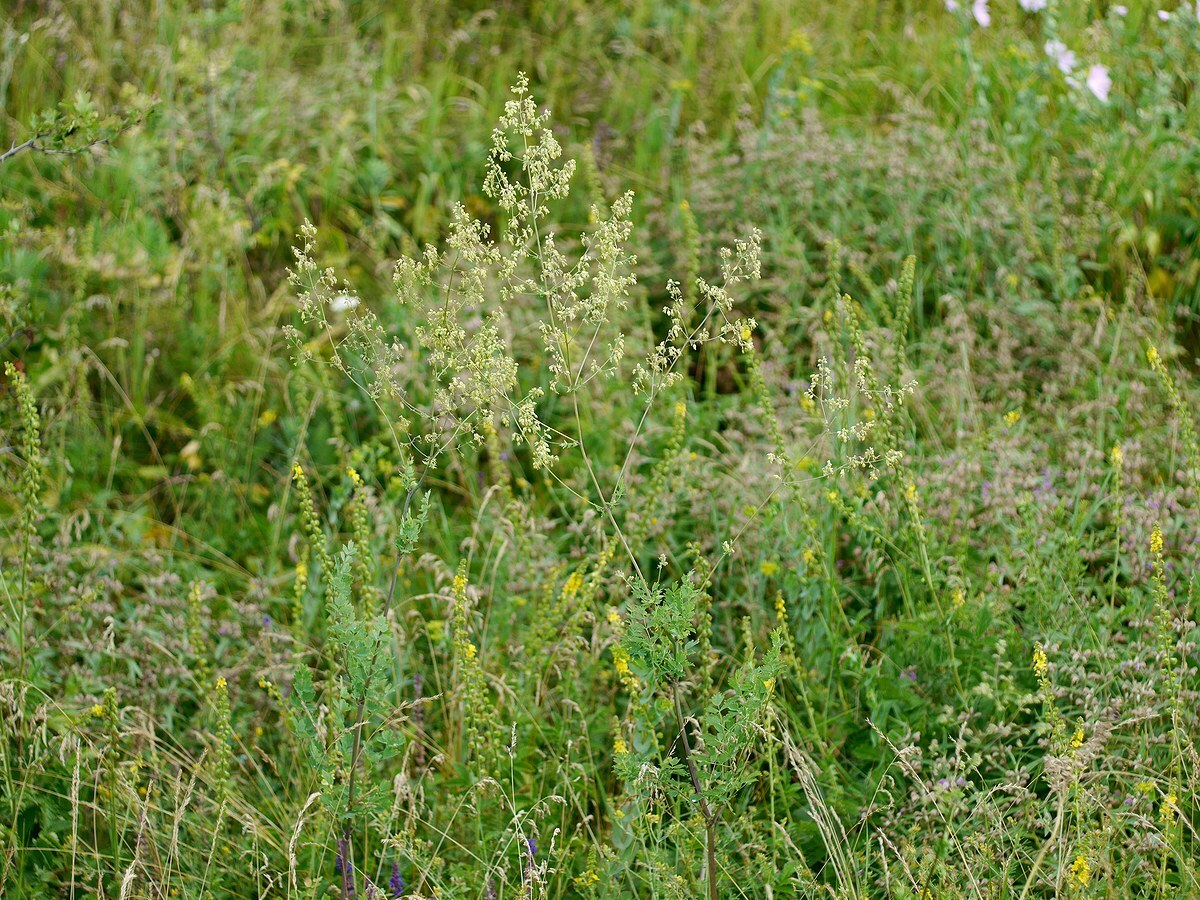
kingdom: Plantae
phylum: Tracheophyta
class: Magnoliopsida
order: Ranunculales
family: Ranunculaceae
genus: Thalictrum
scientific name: Thalictrum minus
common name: Lesser meadow-rue
